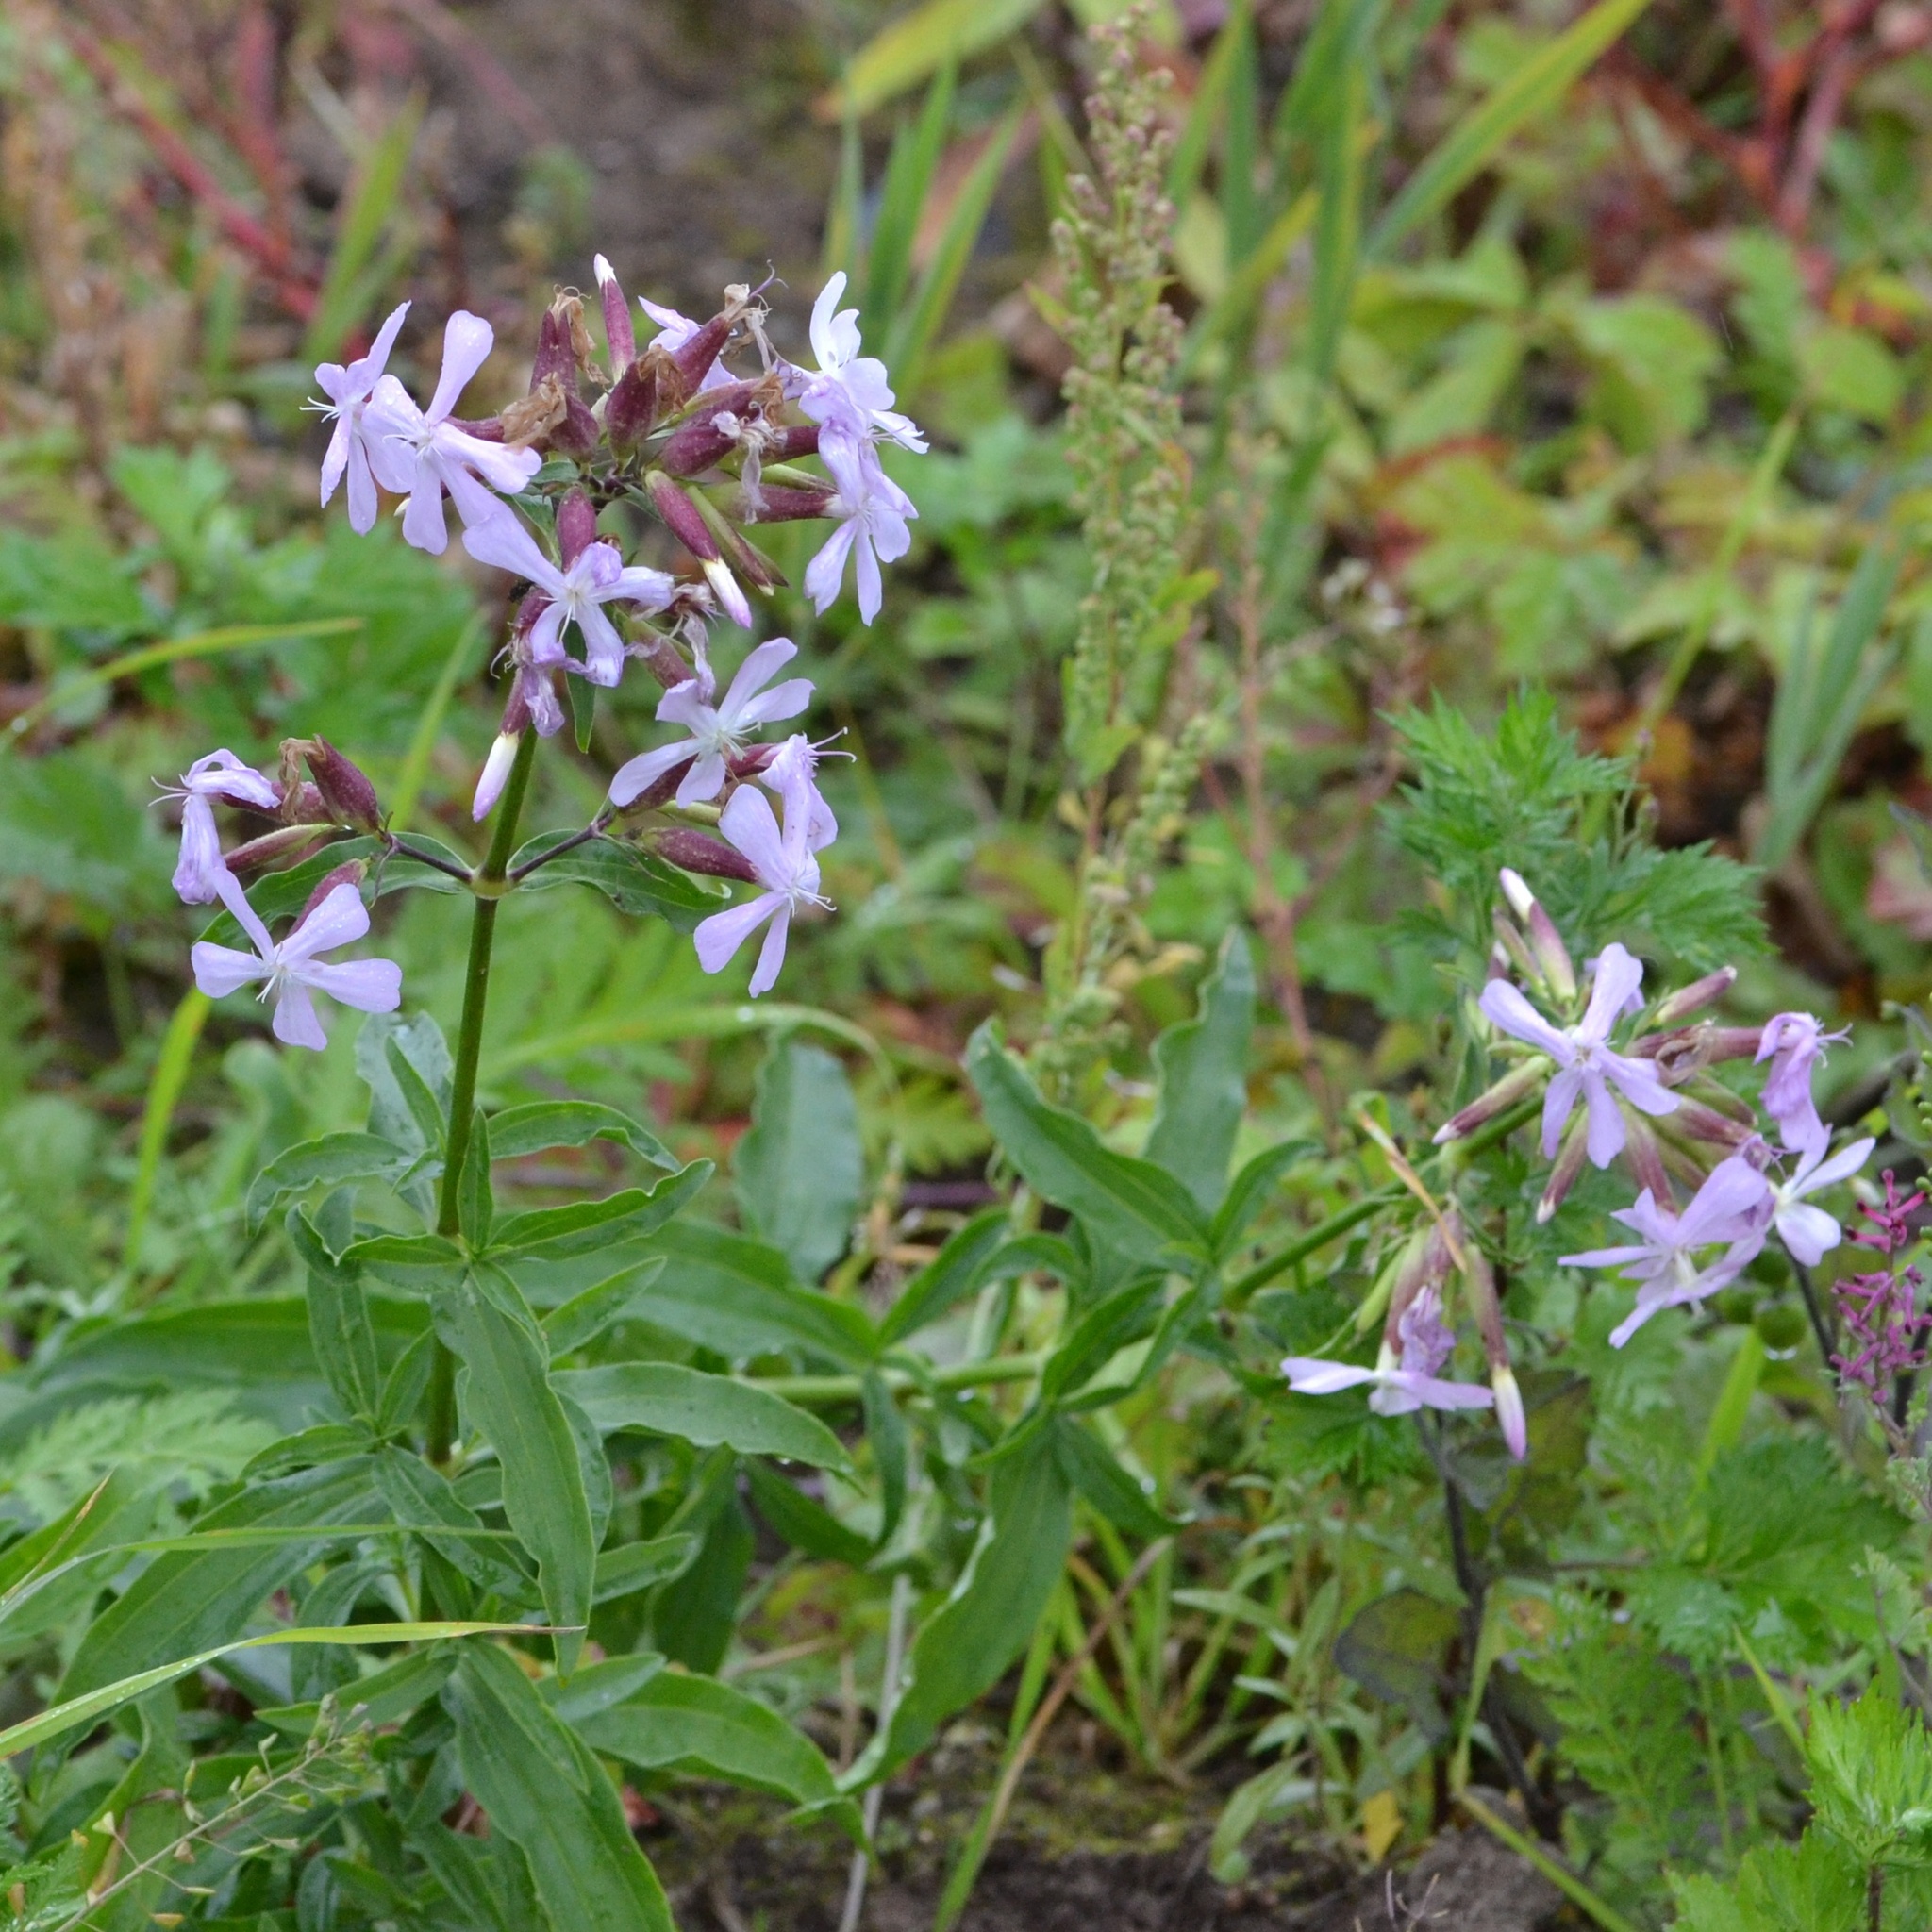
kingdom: Plantae
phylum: Tracheophyta
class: Magnoliopsida
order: Caryophyllales
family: Caryophyllaceae
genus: Saponaria
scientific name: Saponaria officinalis
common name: Soapwort
